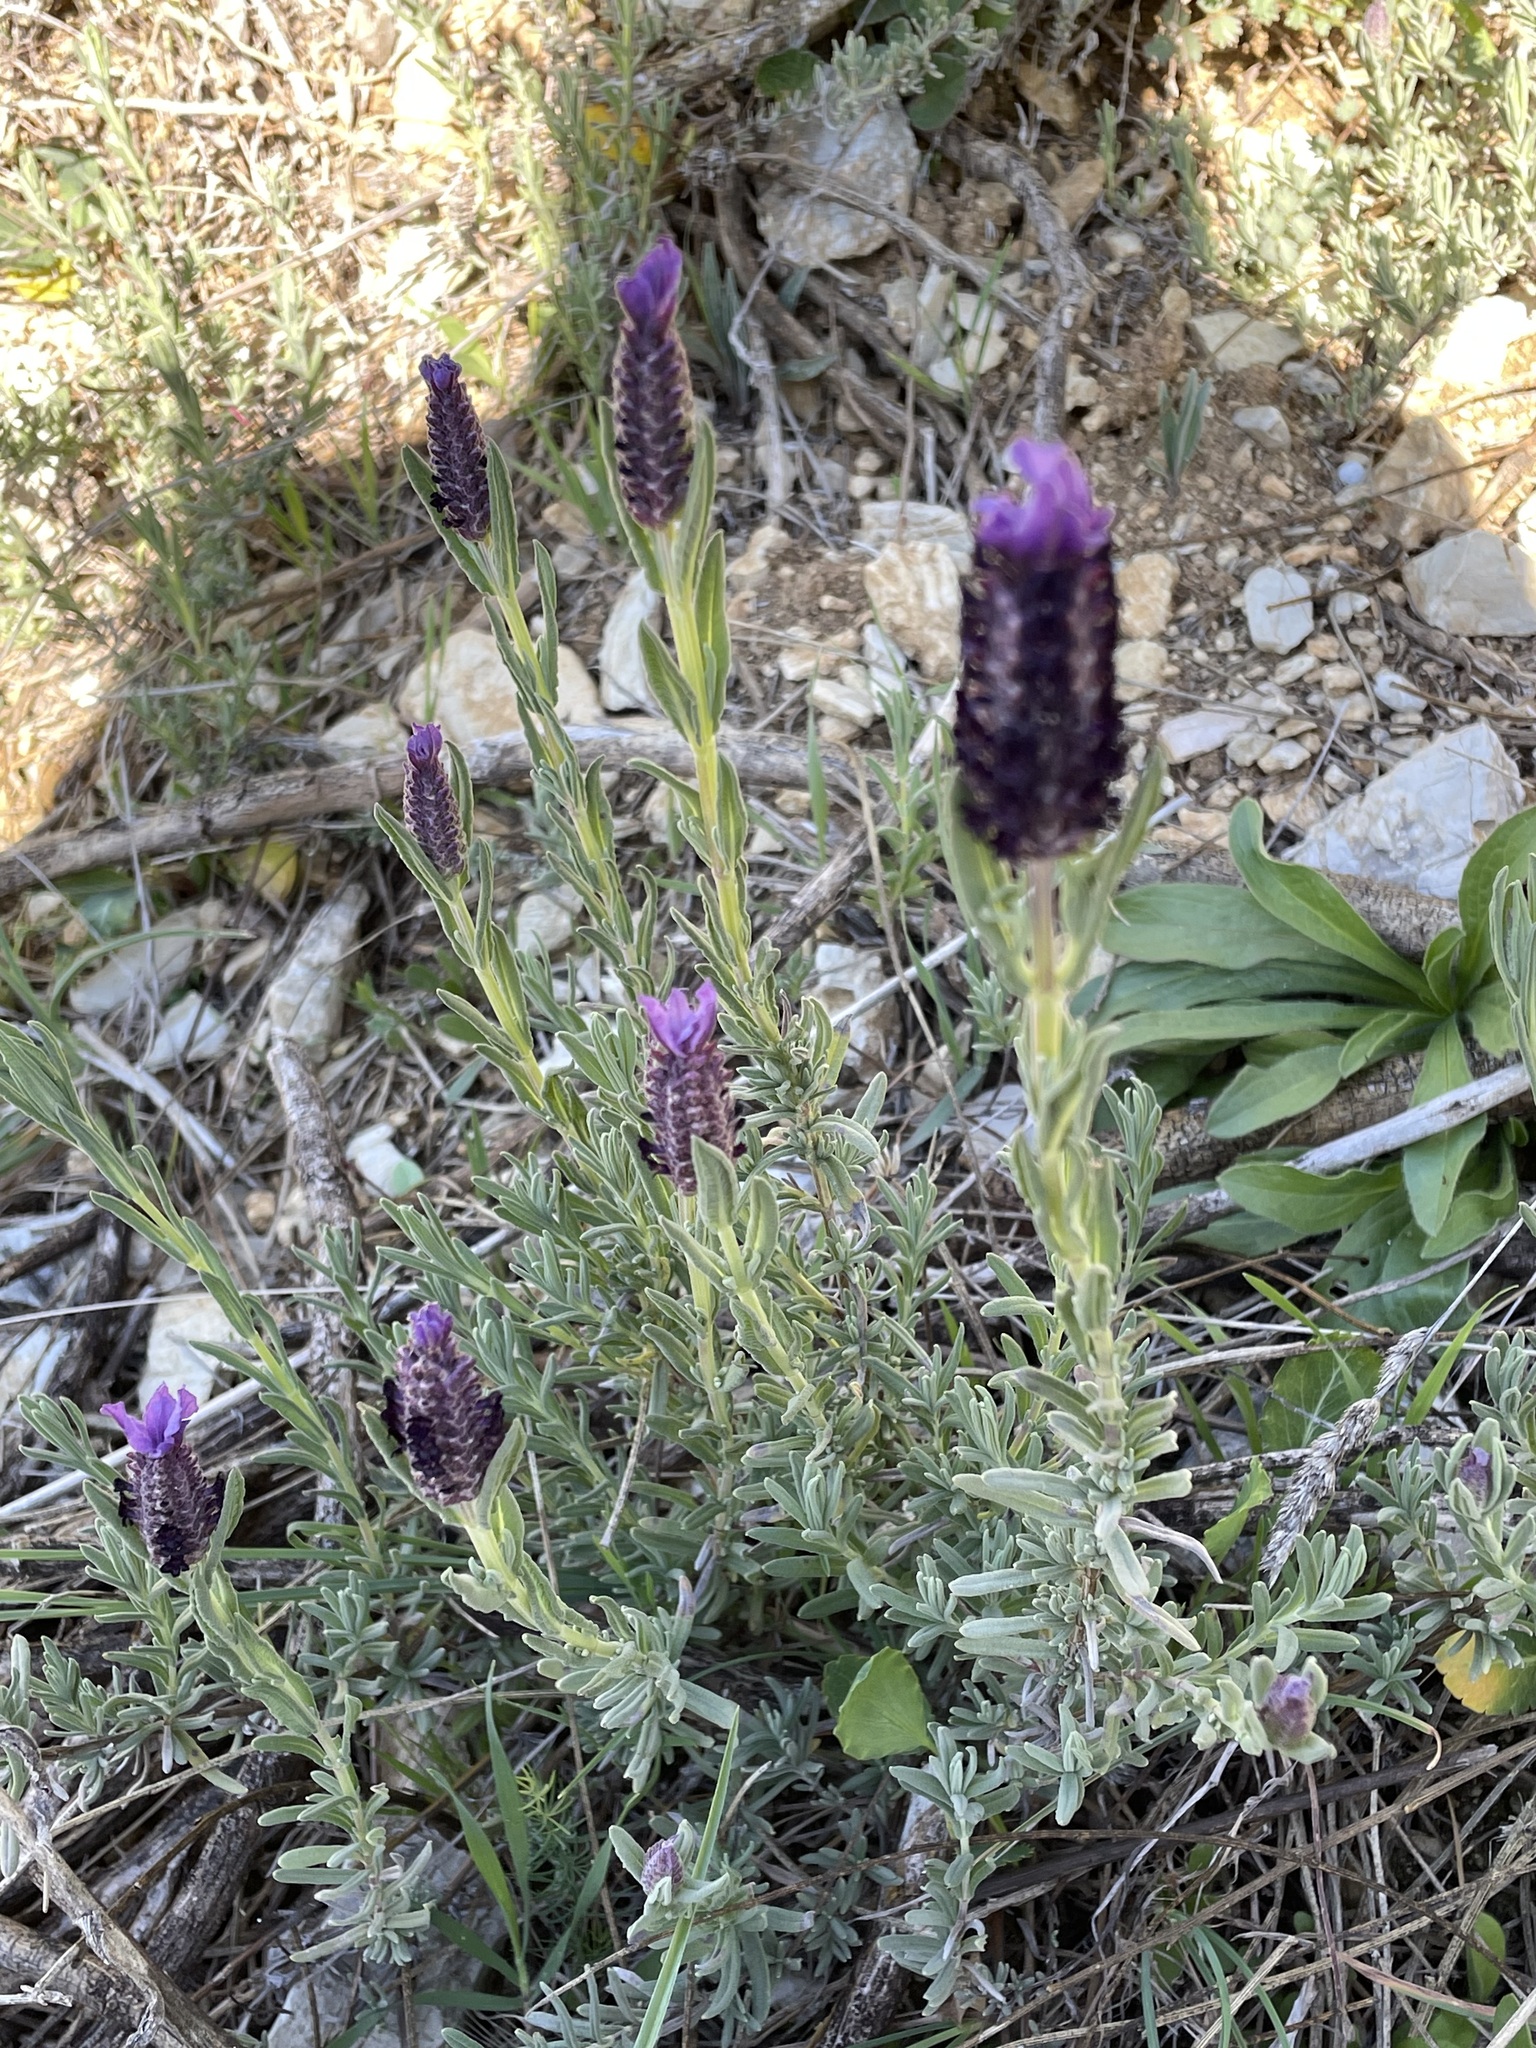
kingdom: Plantae
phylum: Tracheophyta
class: Magnoliopsida
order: Lamiales
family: Lamiaceae
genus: Lavandula
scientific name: Lavandula stoechas
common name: French lavender
